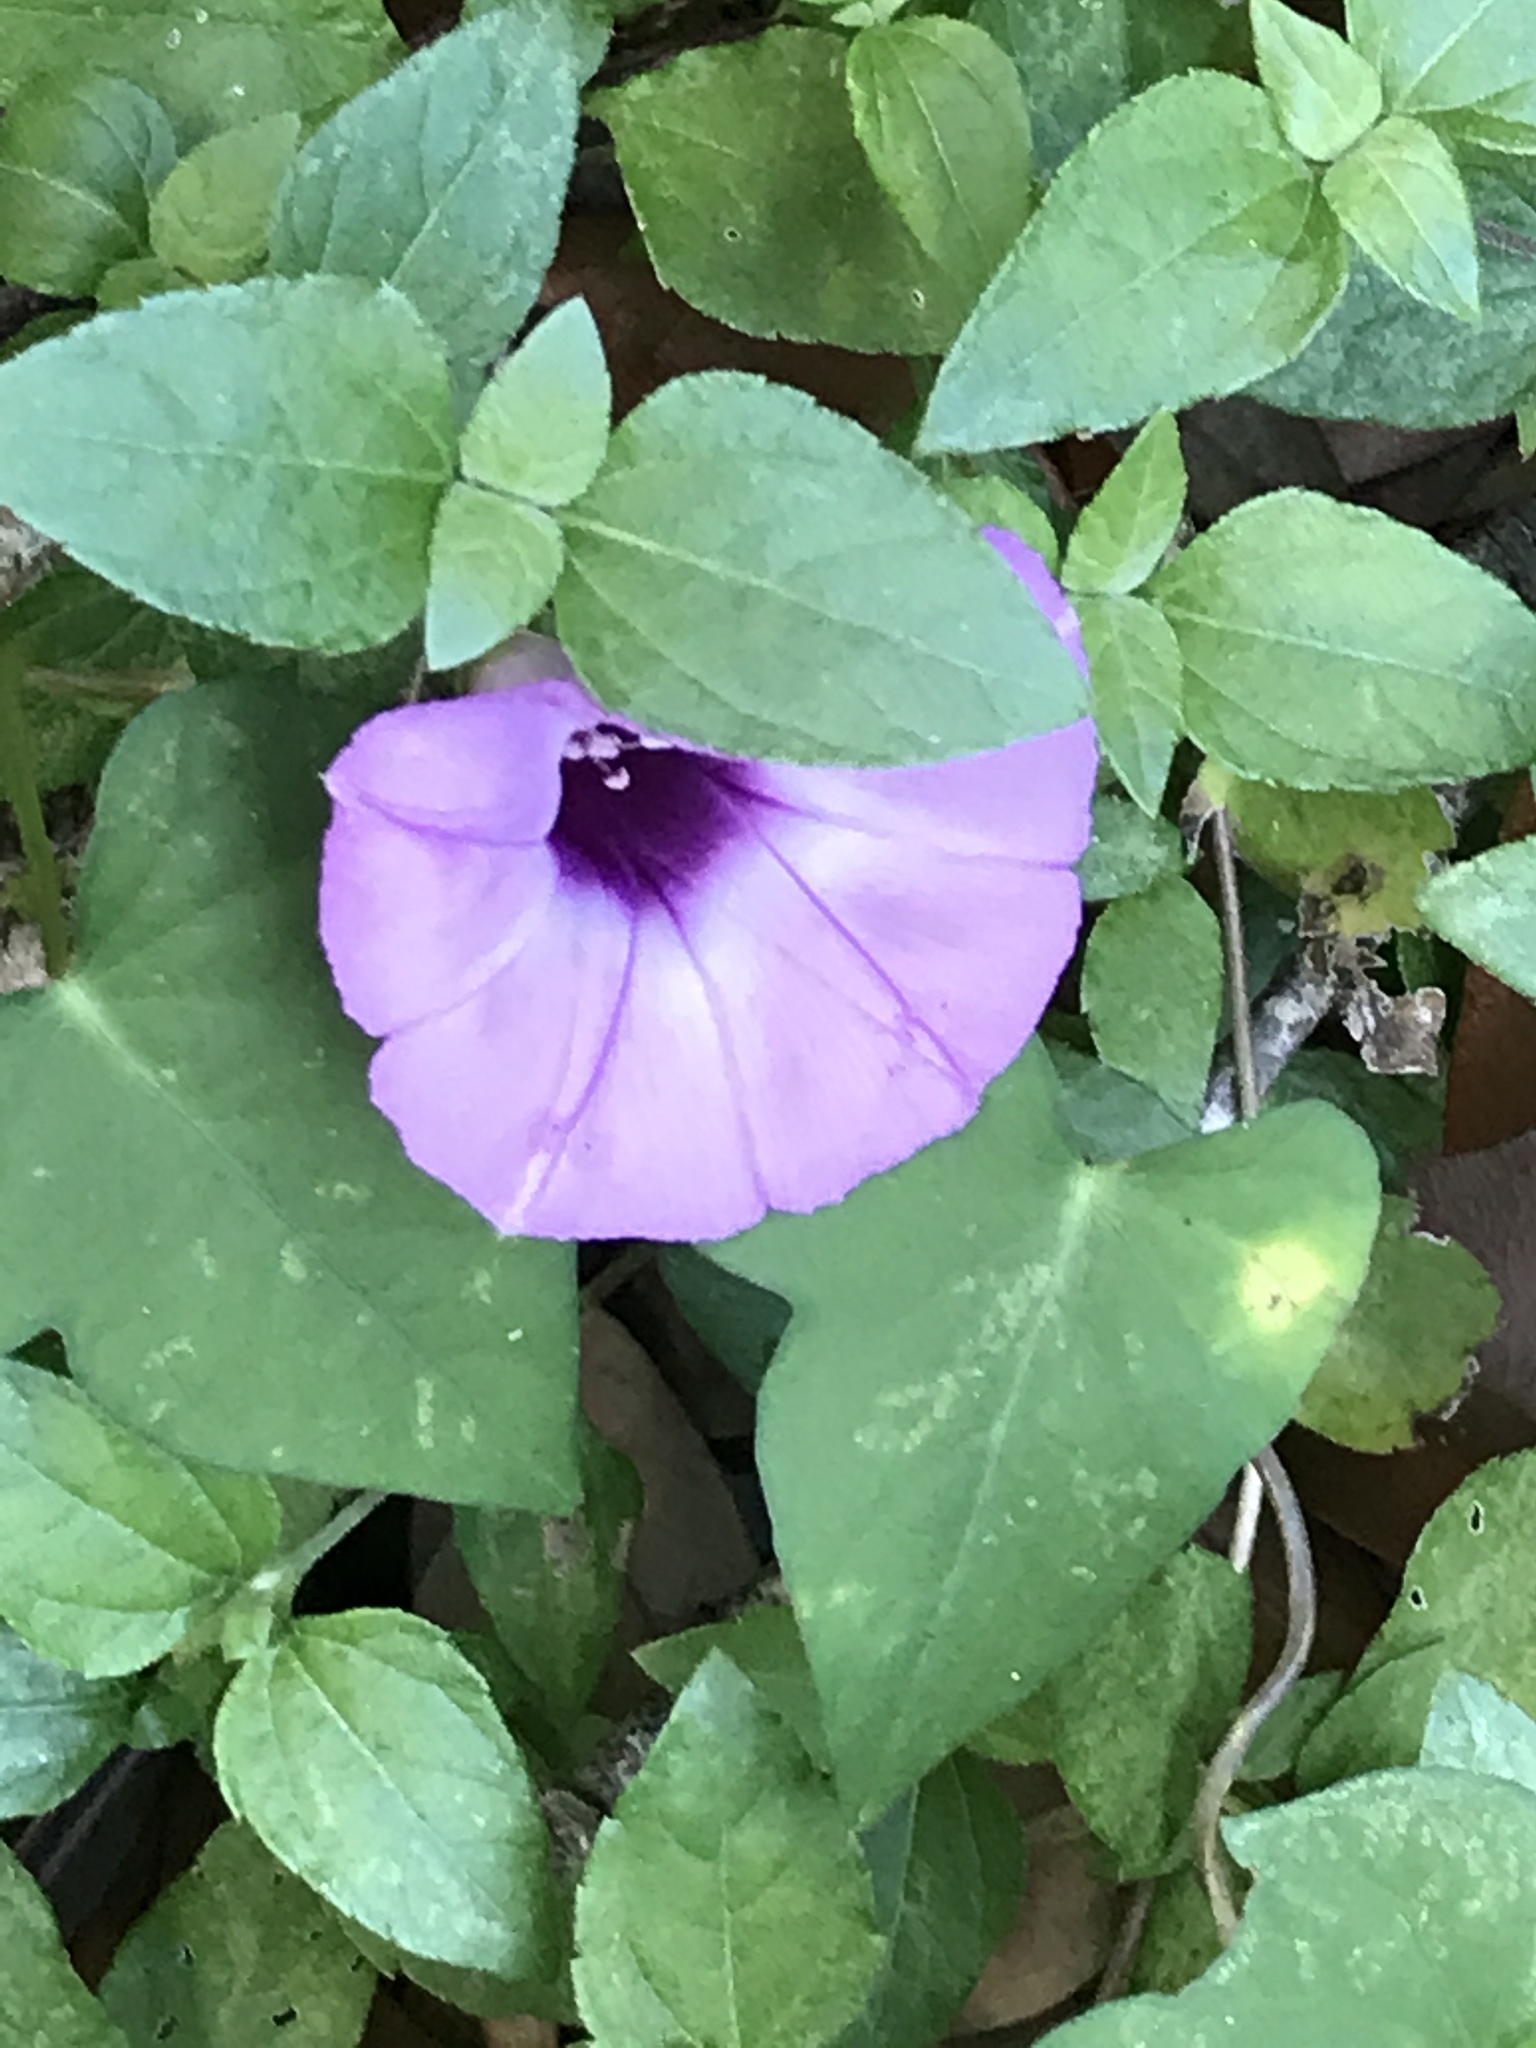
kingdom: Plantae
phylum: Tracheophyta
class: Magnoliopsida
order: Solanales
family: Convolvulaceae
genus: Ipomoea
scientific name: Ipomoea cordatotriloba
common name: Cotton morning glory
